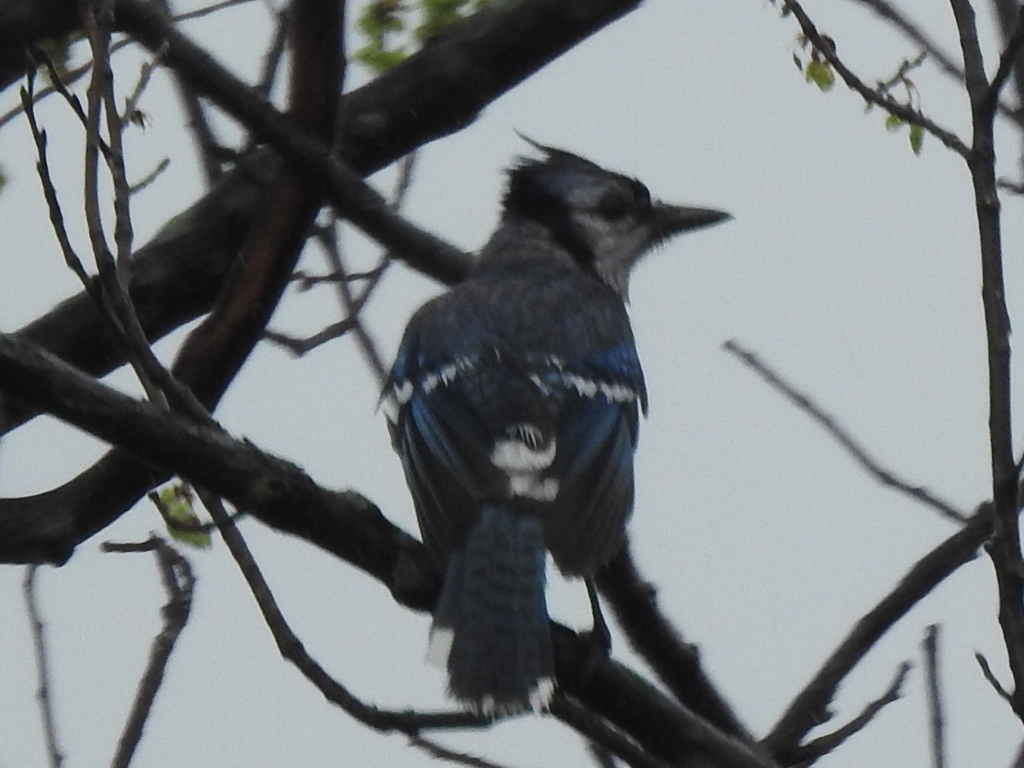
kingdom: Animalia
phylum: Chordata
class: Aves
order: Passeriformes
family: Corvidae
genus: Cyanocitta
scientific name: Cyanocitta cristata
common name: Blue jay
